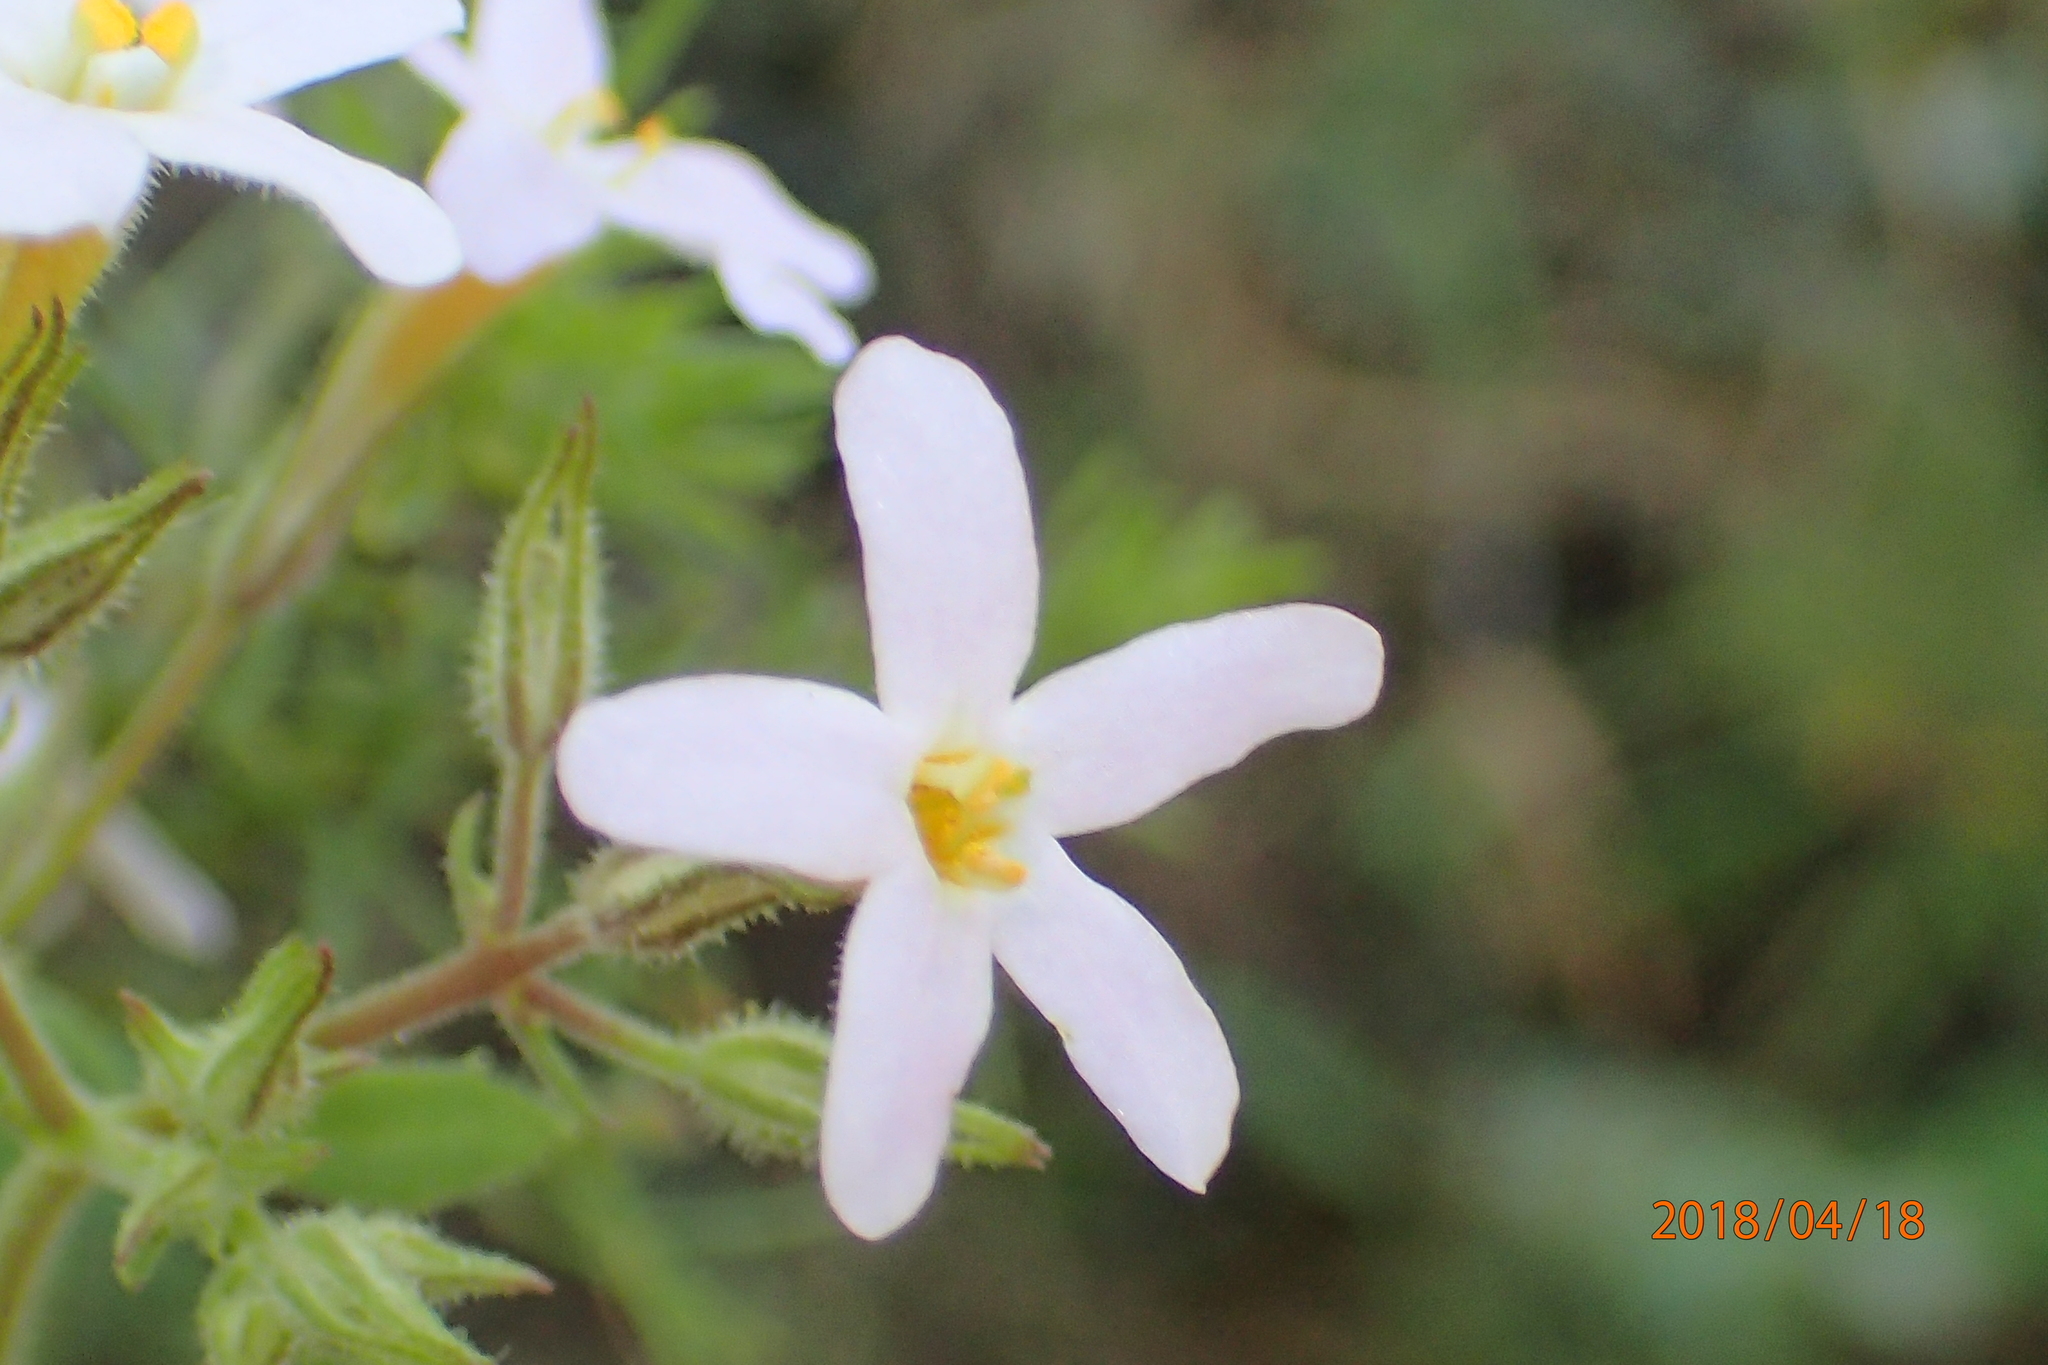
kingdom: Plantae
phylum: Tracheophyta
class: Magnoliopsida
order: Lamiales
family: Scrophulariaceae
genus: Chaenostoma
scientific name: Chaenostoma floribundum
